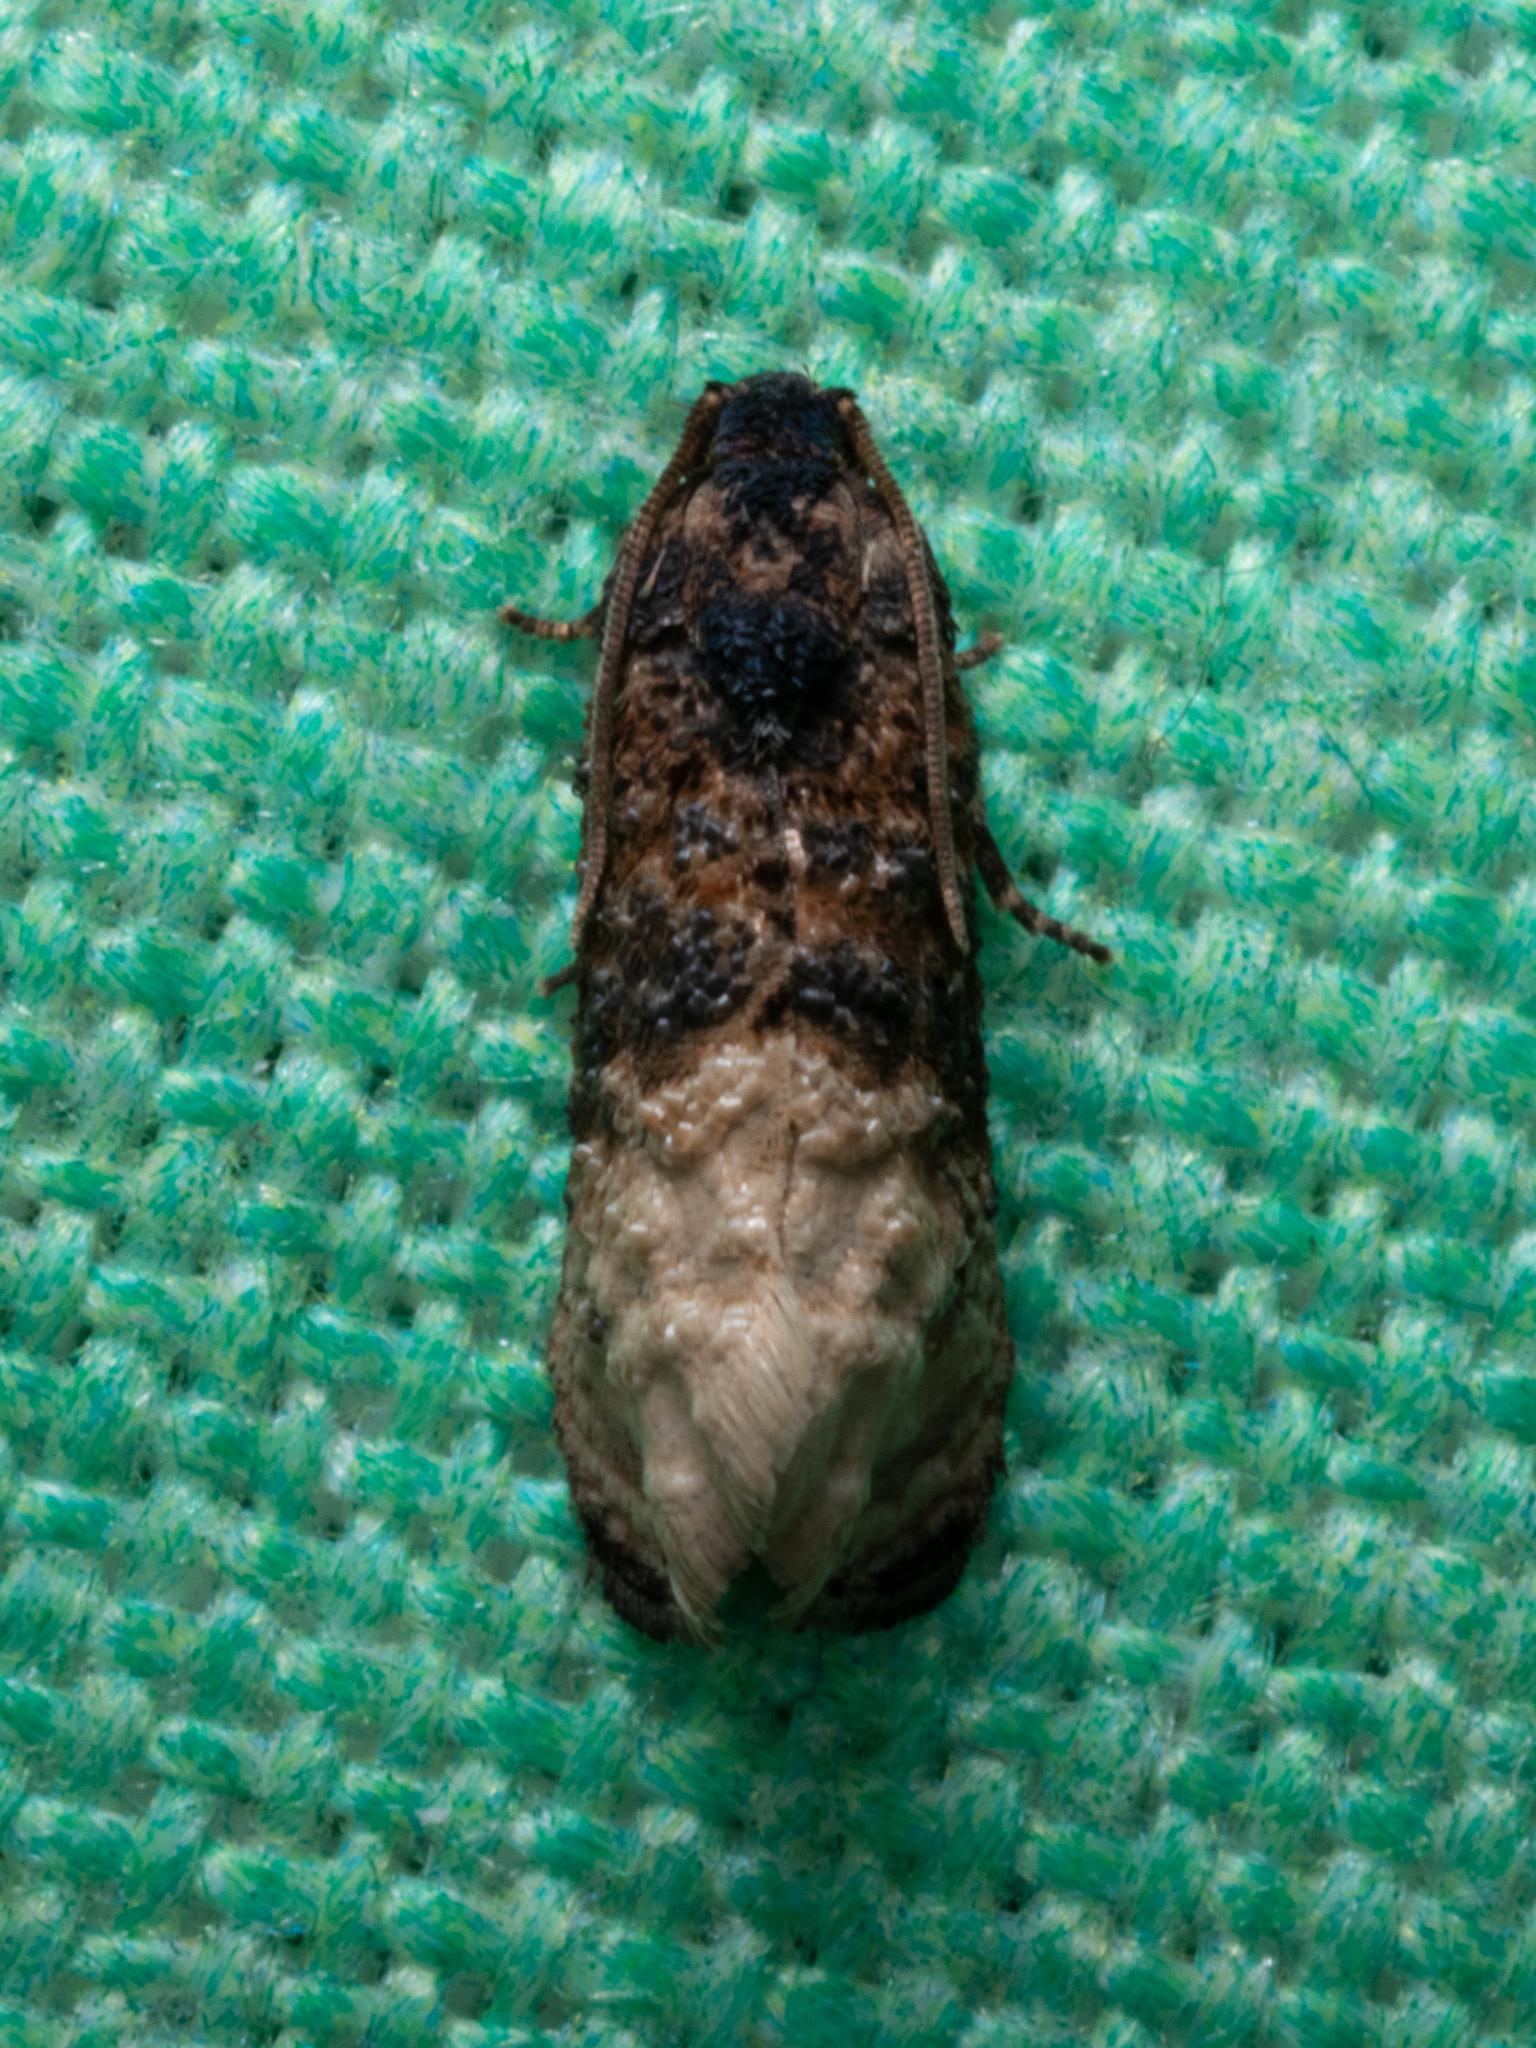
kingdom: Animalia
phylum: Arthropoda
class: Insecta
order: Lepidoptera
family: Tortricidae
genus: Ecdytolopha
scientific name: Ecdytolopha mana
